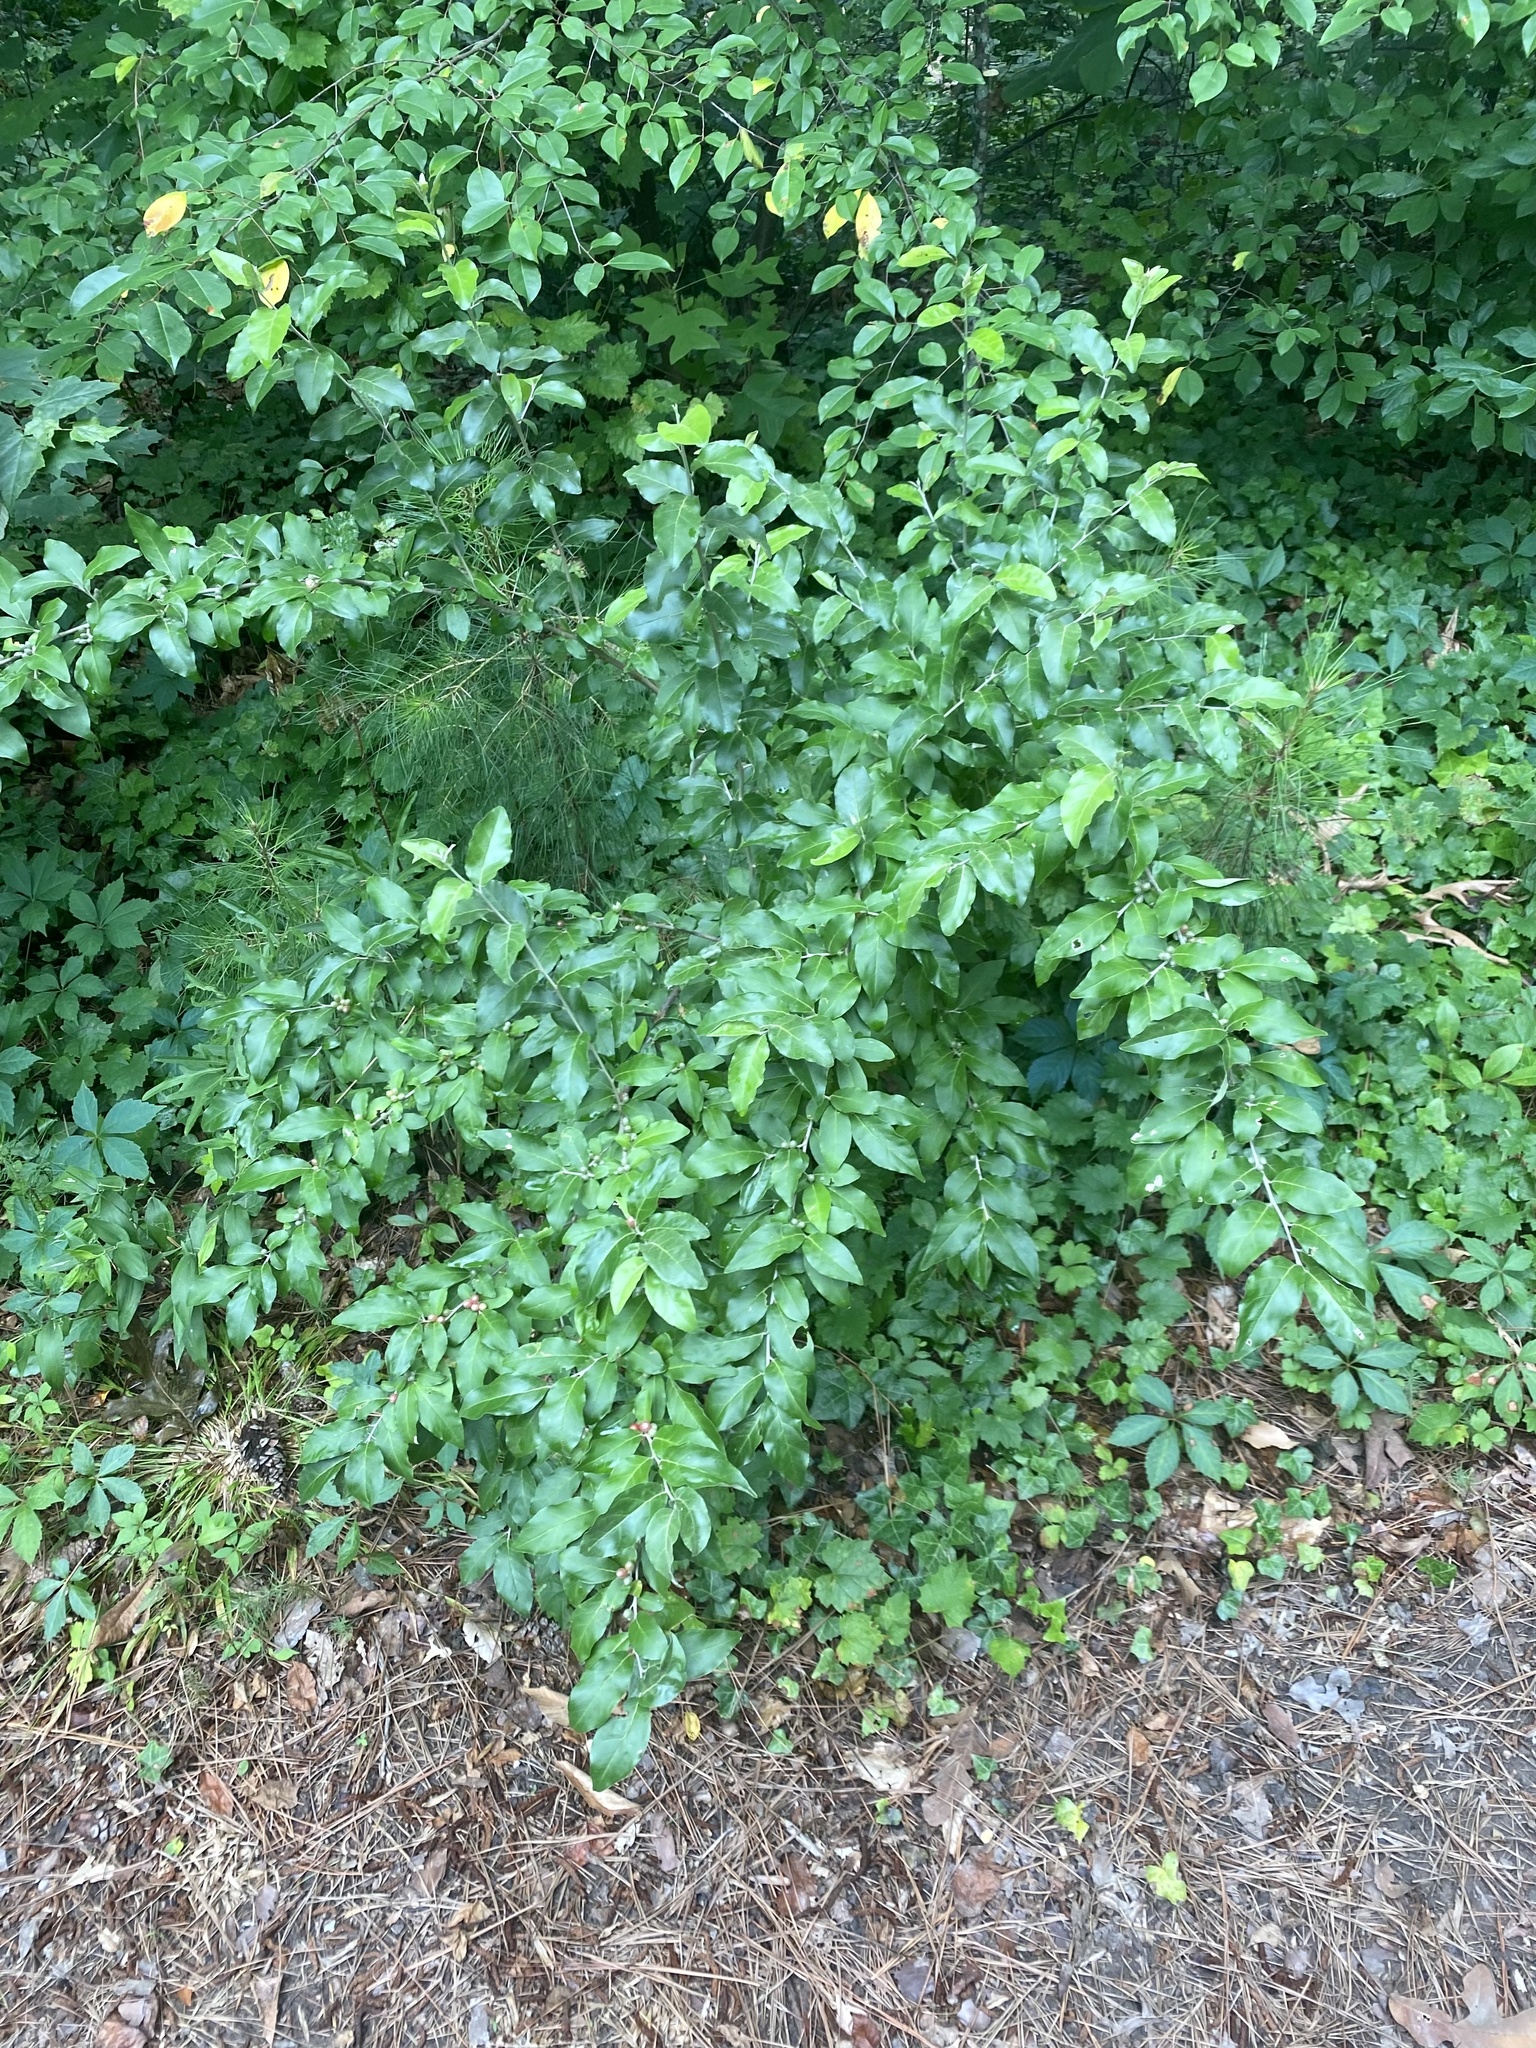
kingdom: Plantae
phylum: Tracheophyta
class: Magnoliopsida
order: Rosales
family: Elaeagnaceae
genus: Elaeagnus
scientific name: Elaeagnus umbellata
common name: Autumn olive
